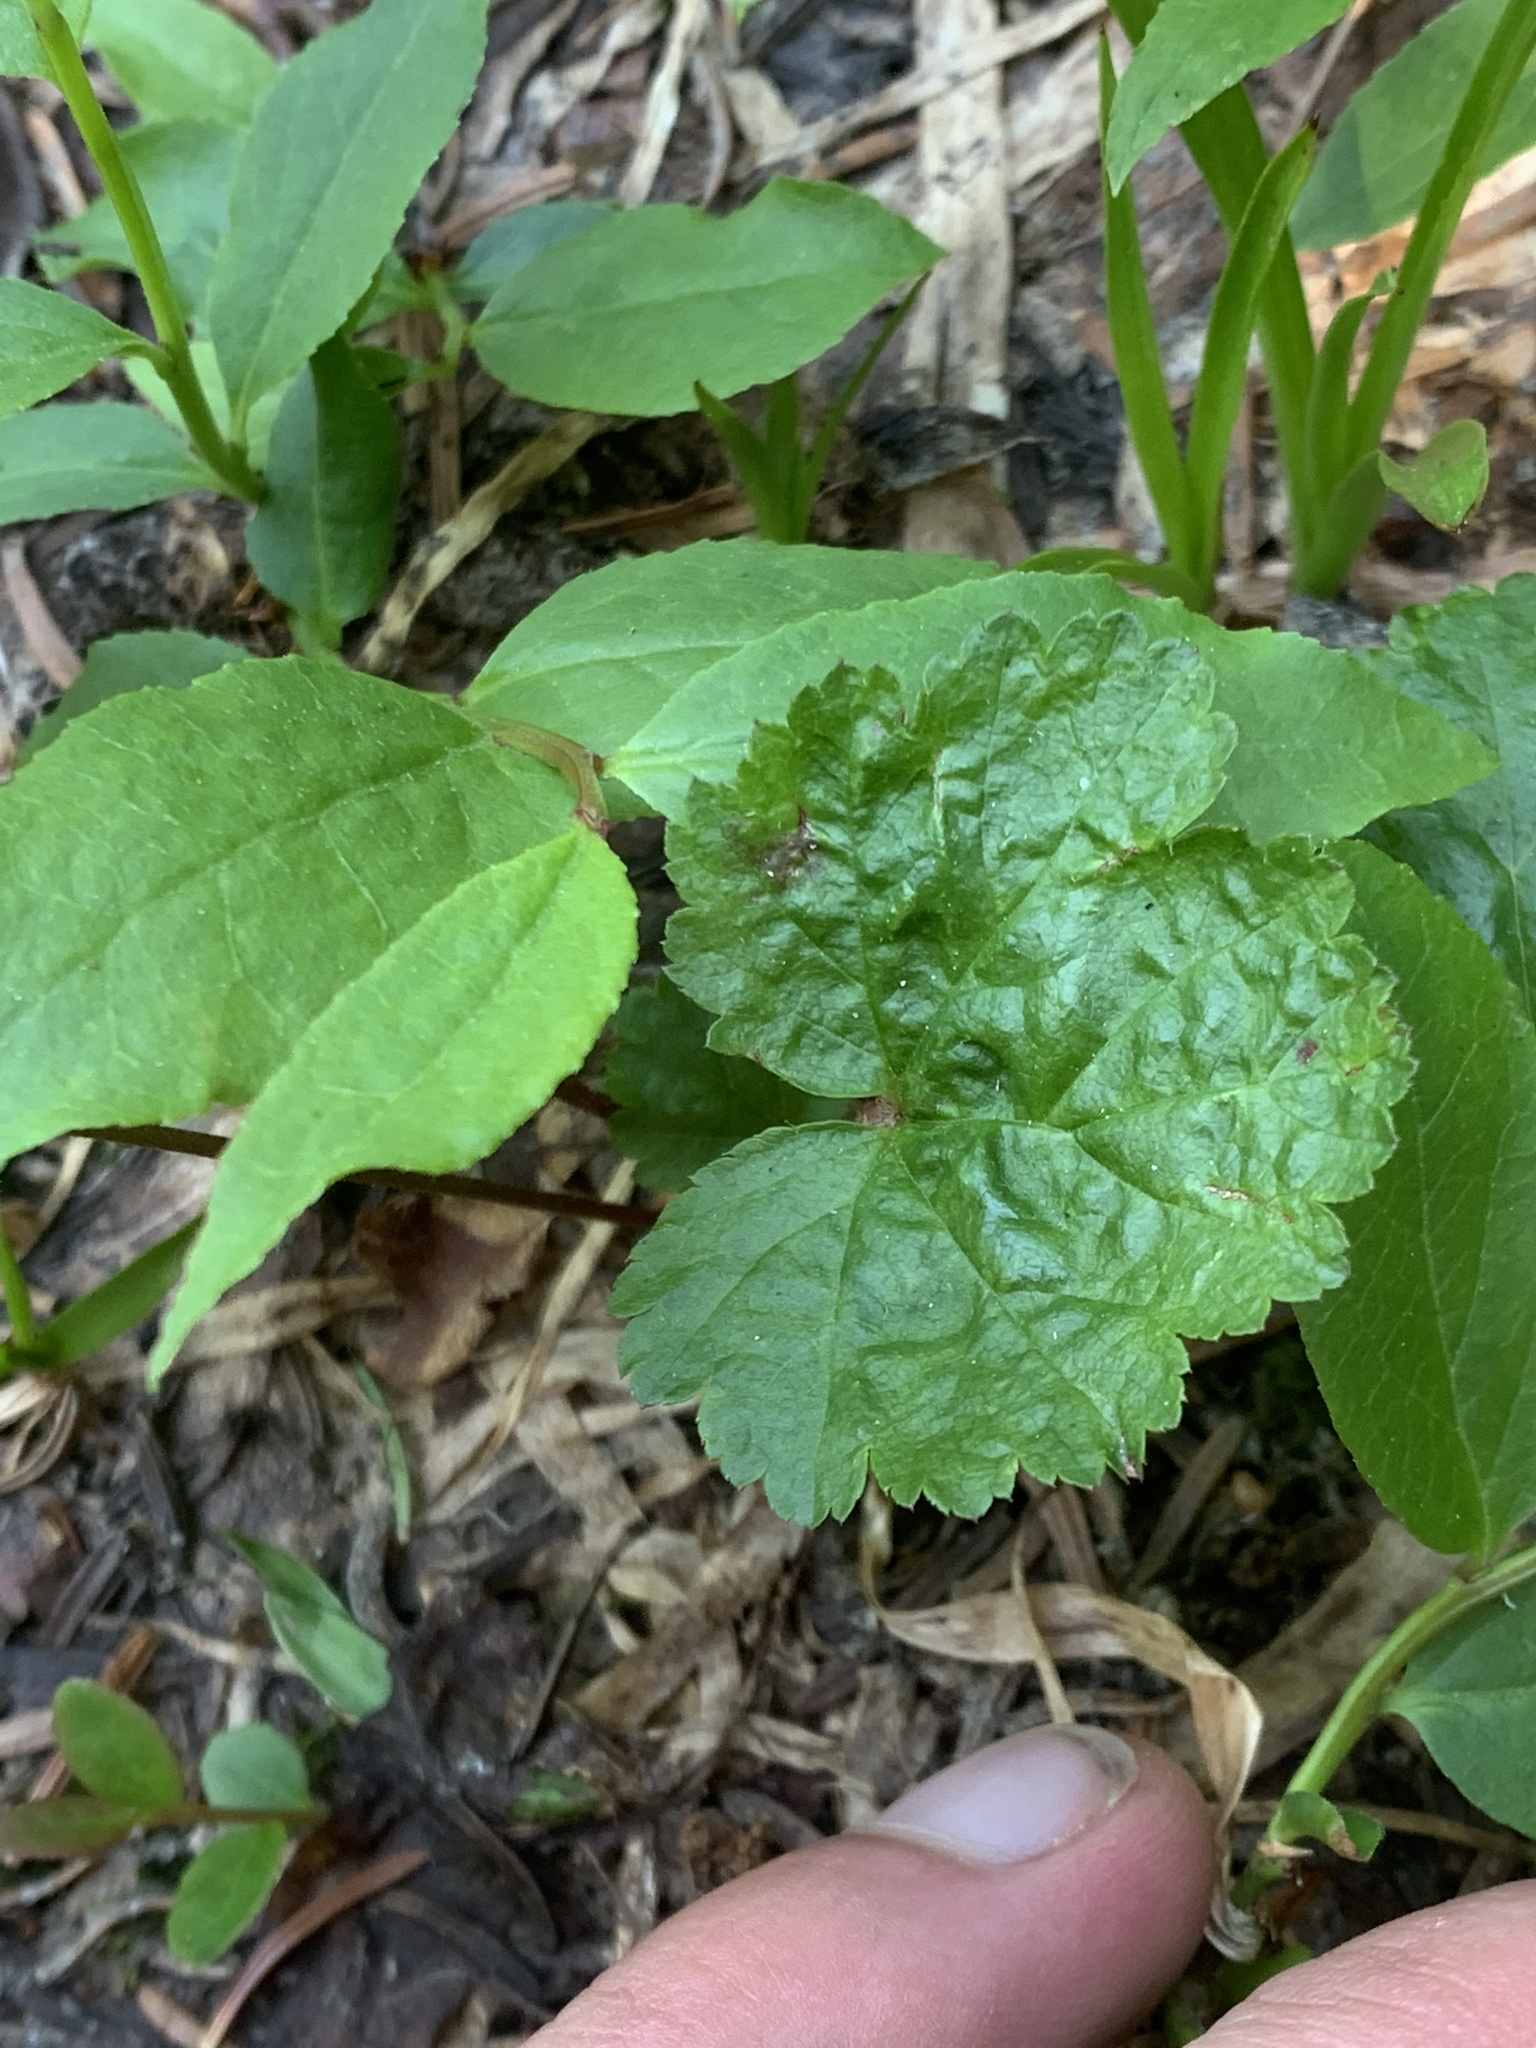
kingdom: Plantae
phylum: Tracheophyta
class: Magnoliopsida
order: Saxifragales
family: Saxifragaceae
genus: Brewerimitella
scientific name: Brewerimitella breweri
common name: Brewer's bishop's-cap
